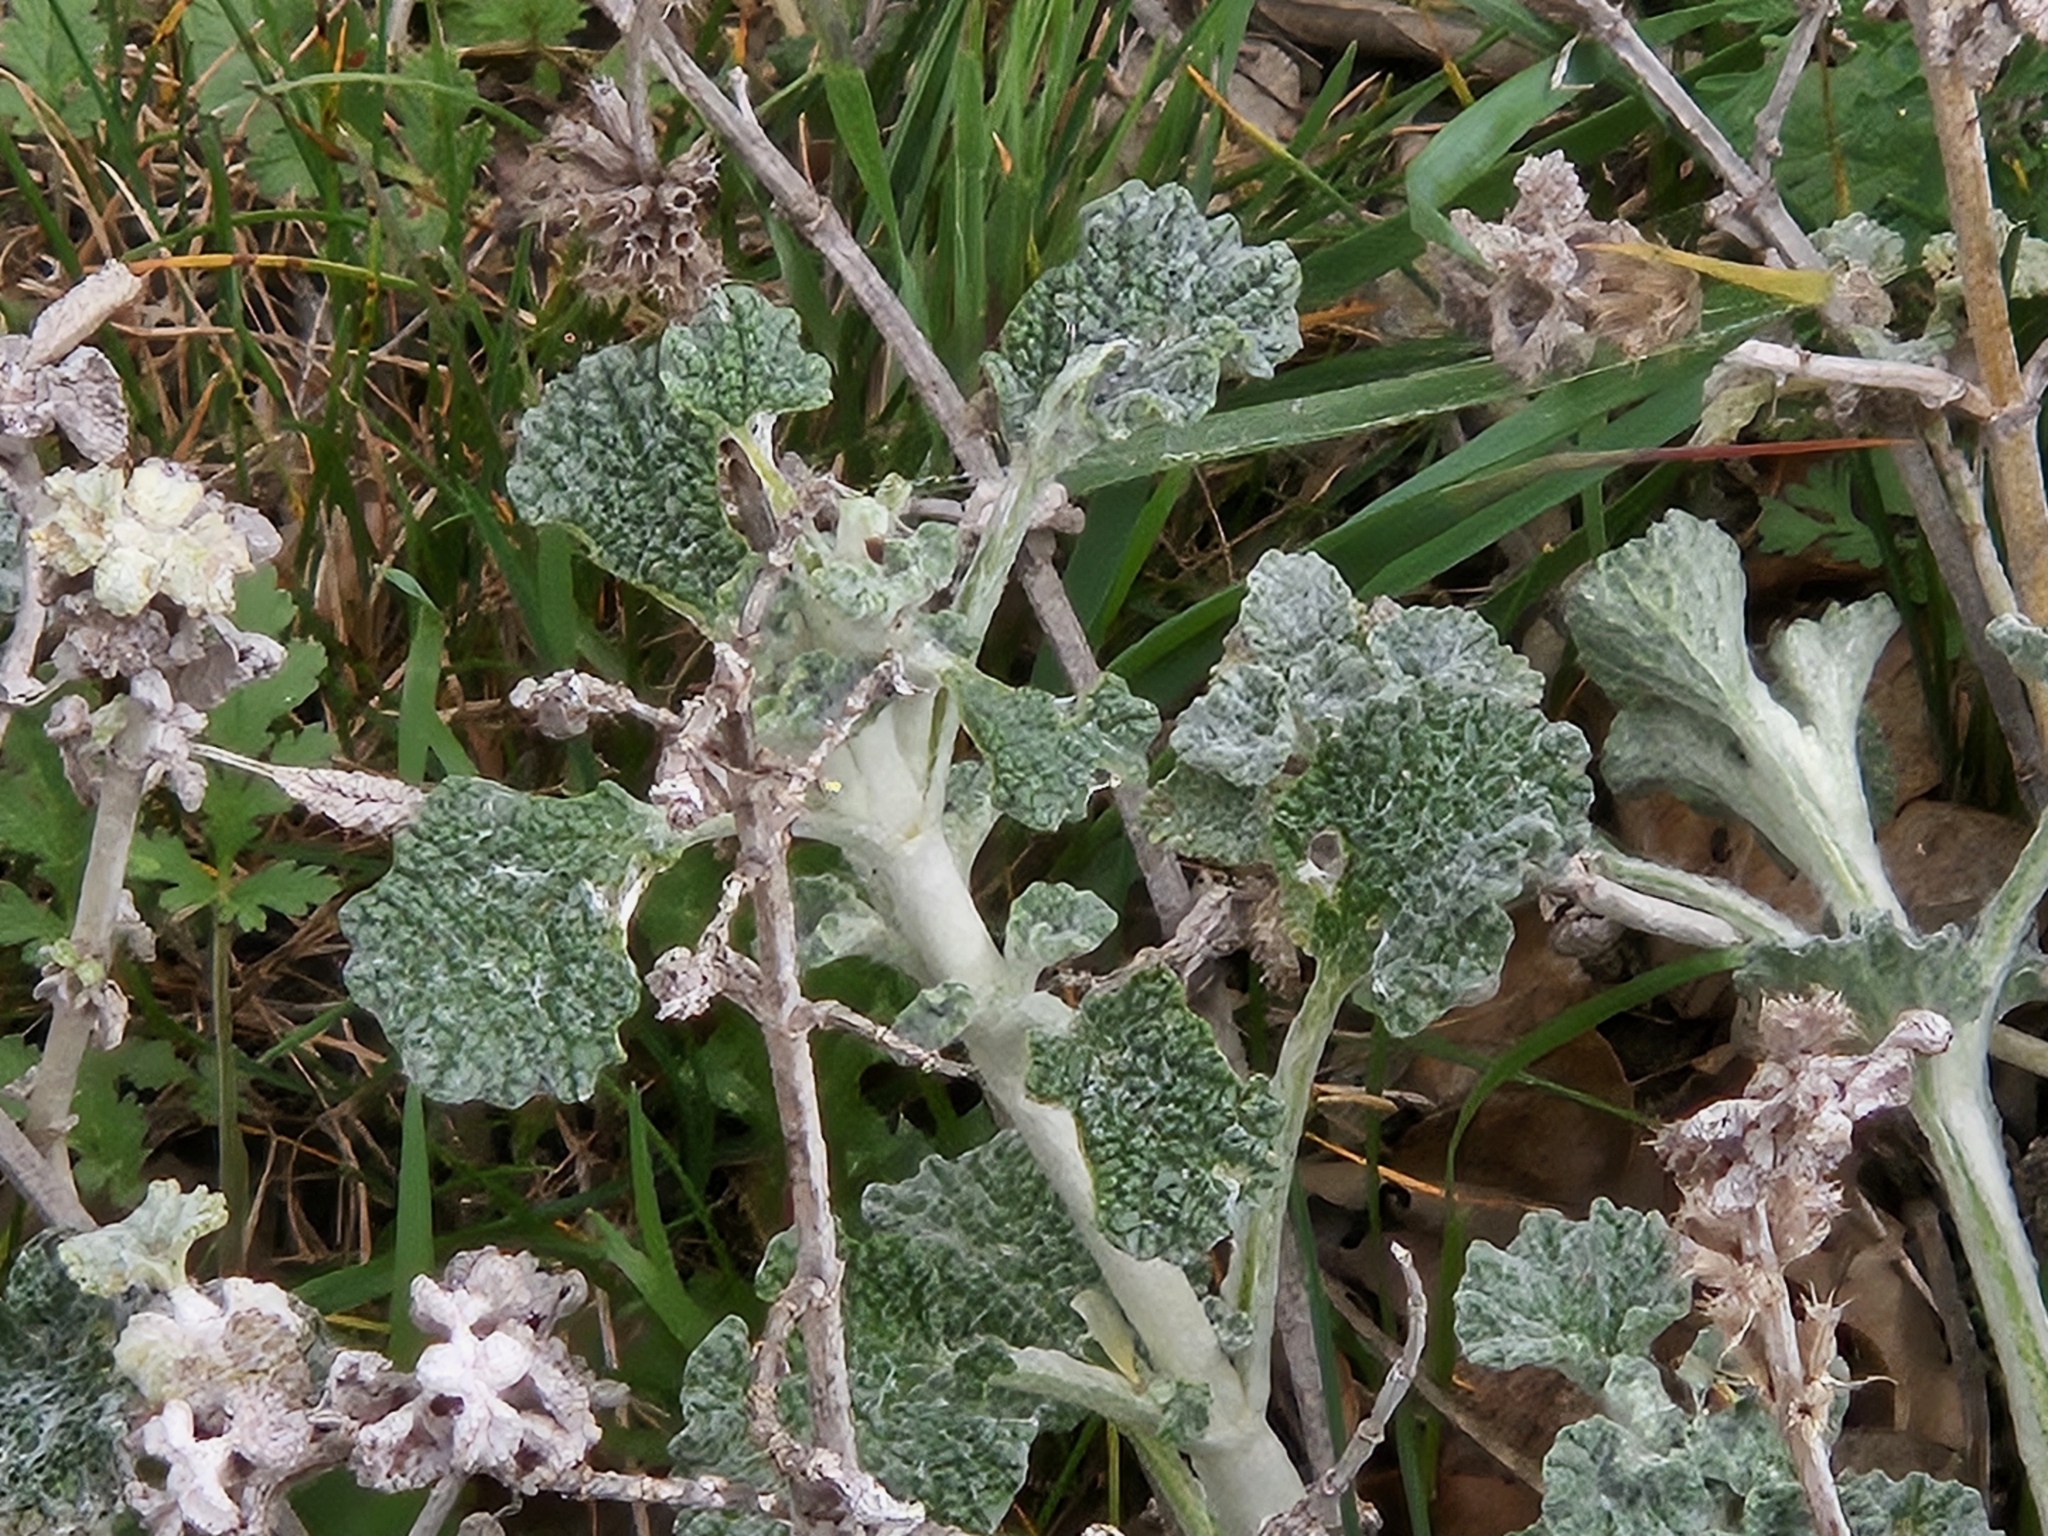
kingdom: Plantae
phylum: Tracheophyta
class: Magnoliopsida
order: Lamiales
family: Lamiaceae
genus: Marrubium
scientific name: Marrubium vulgare
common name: Horehound
